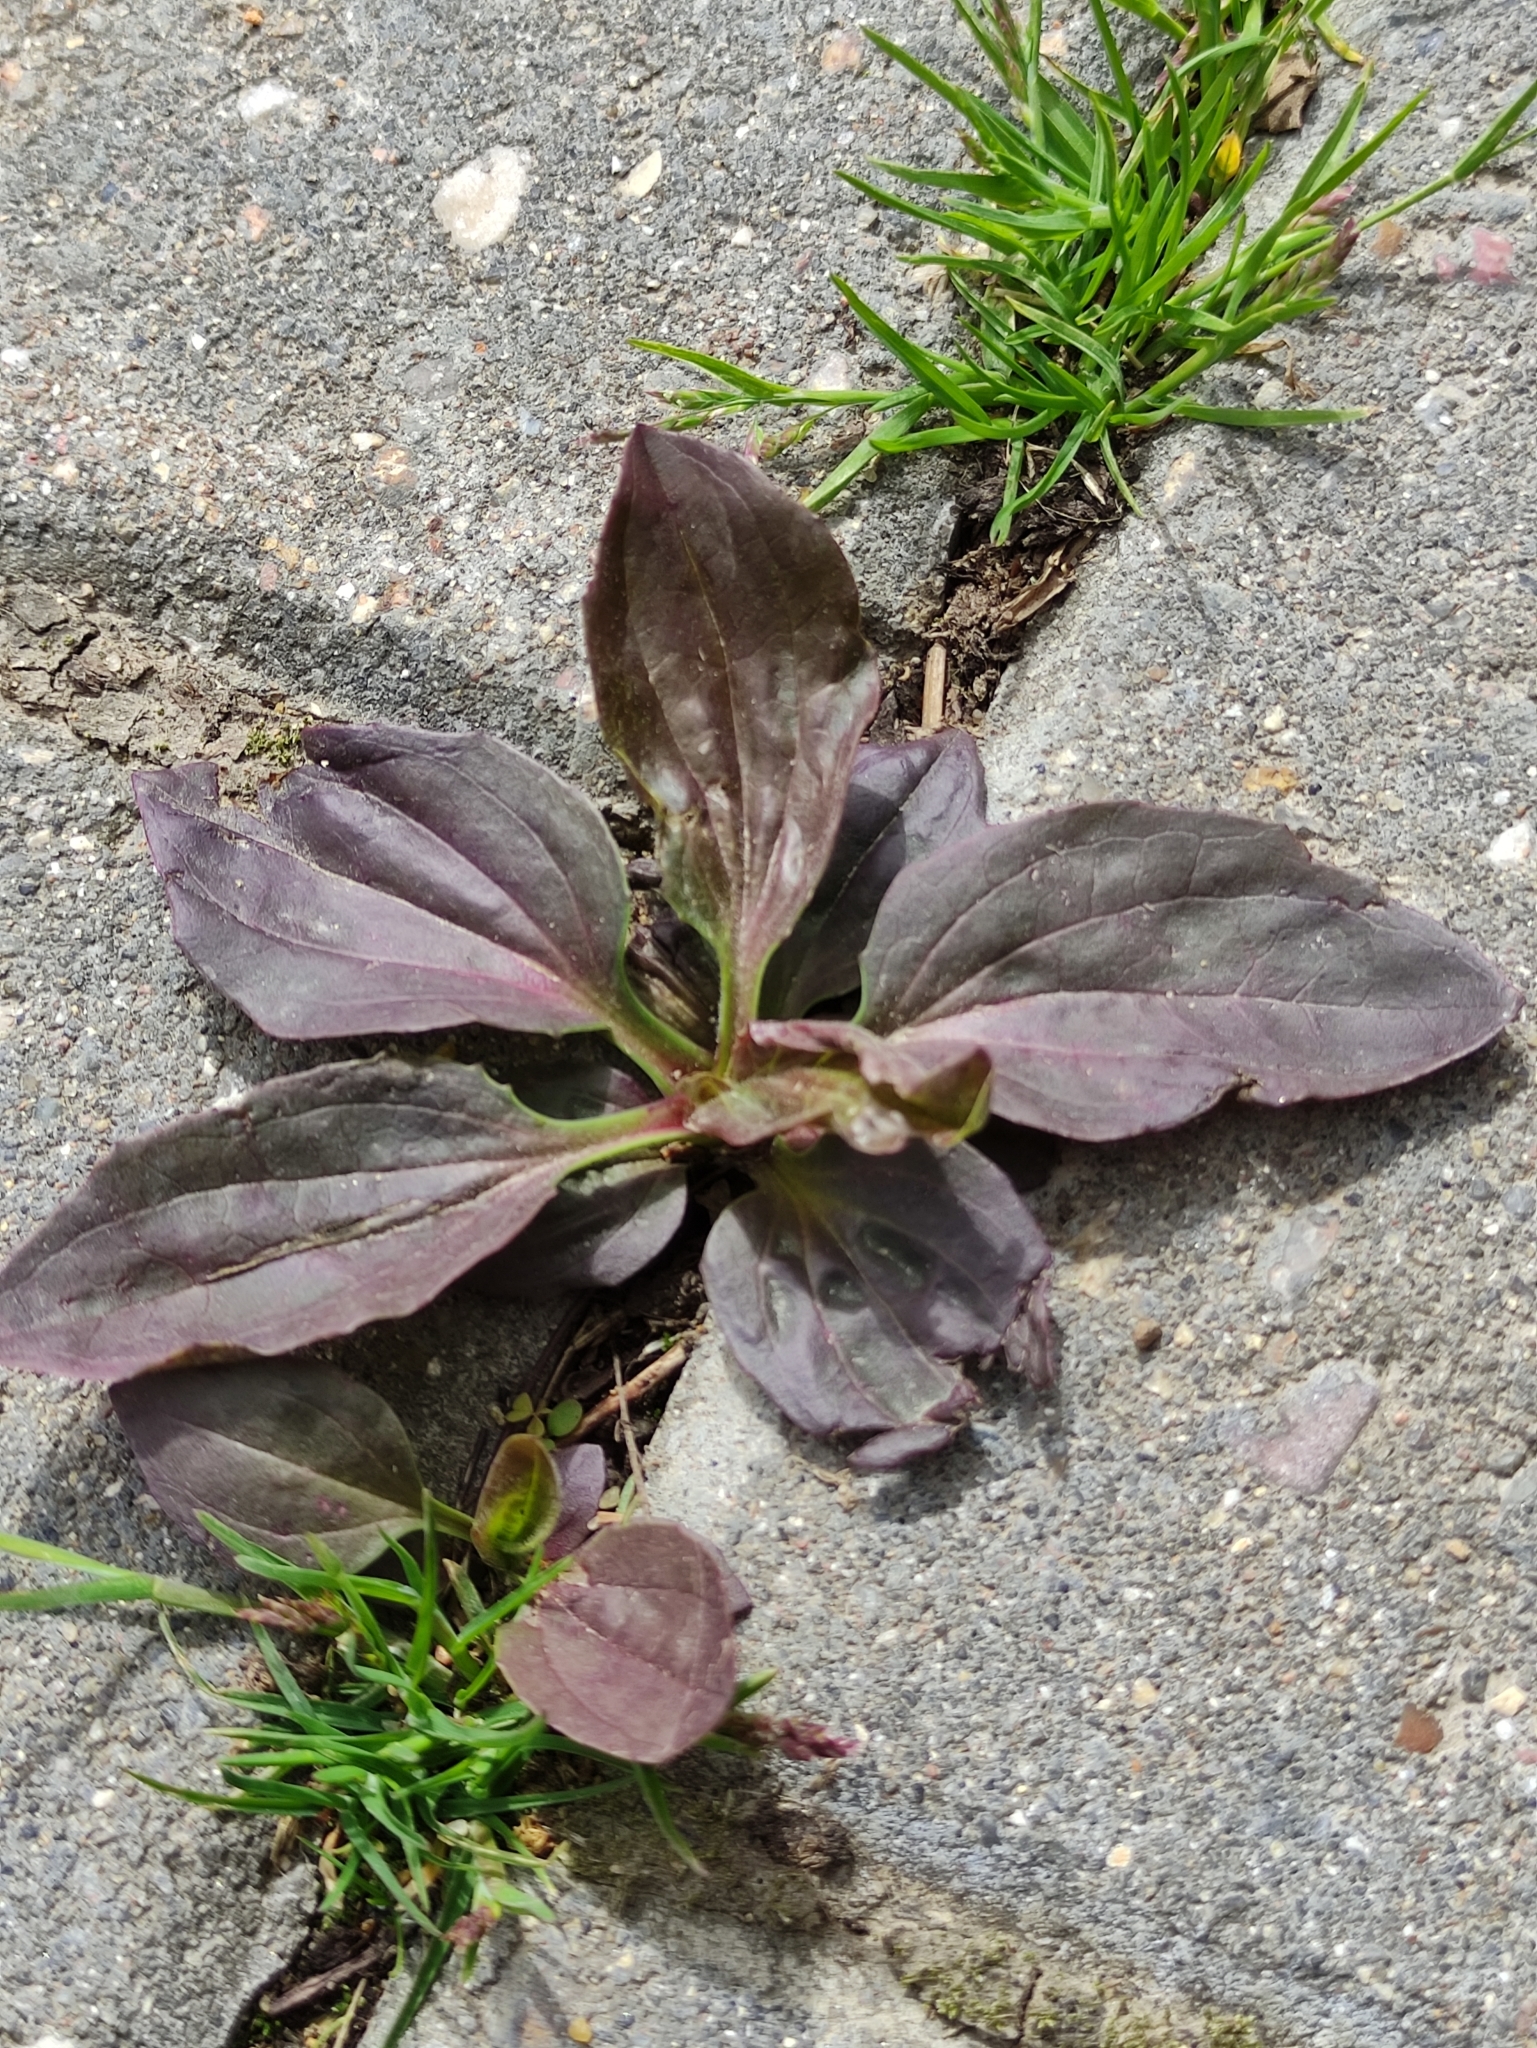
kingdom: Plantae
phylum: Tracheophyta
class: Magnoliopsida
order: Lamiales
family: Plantaginaceae
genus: Plantago
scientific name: Plantago major
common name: Common plantain
